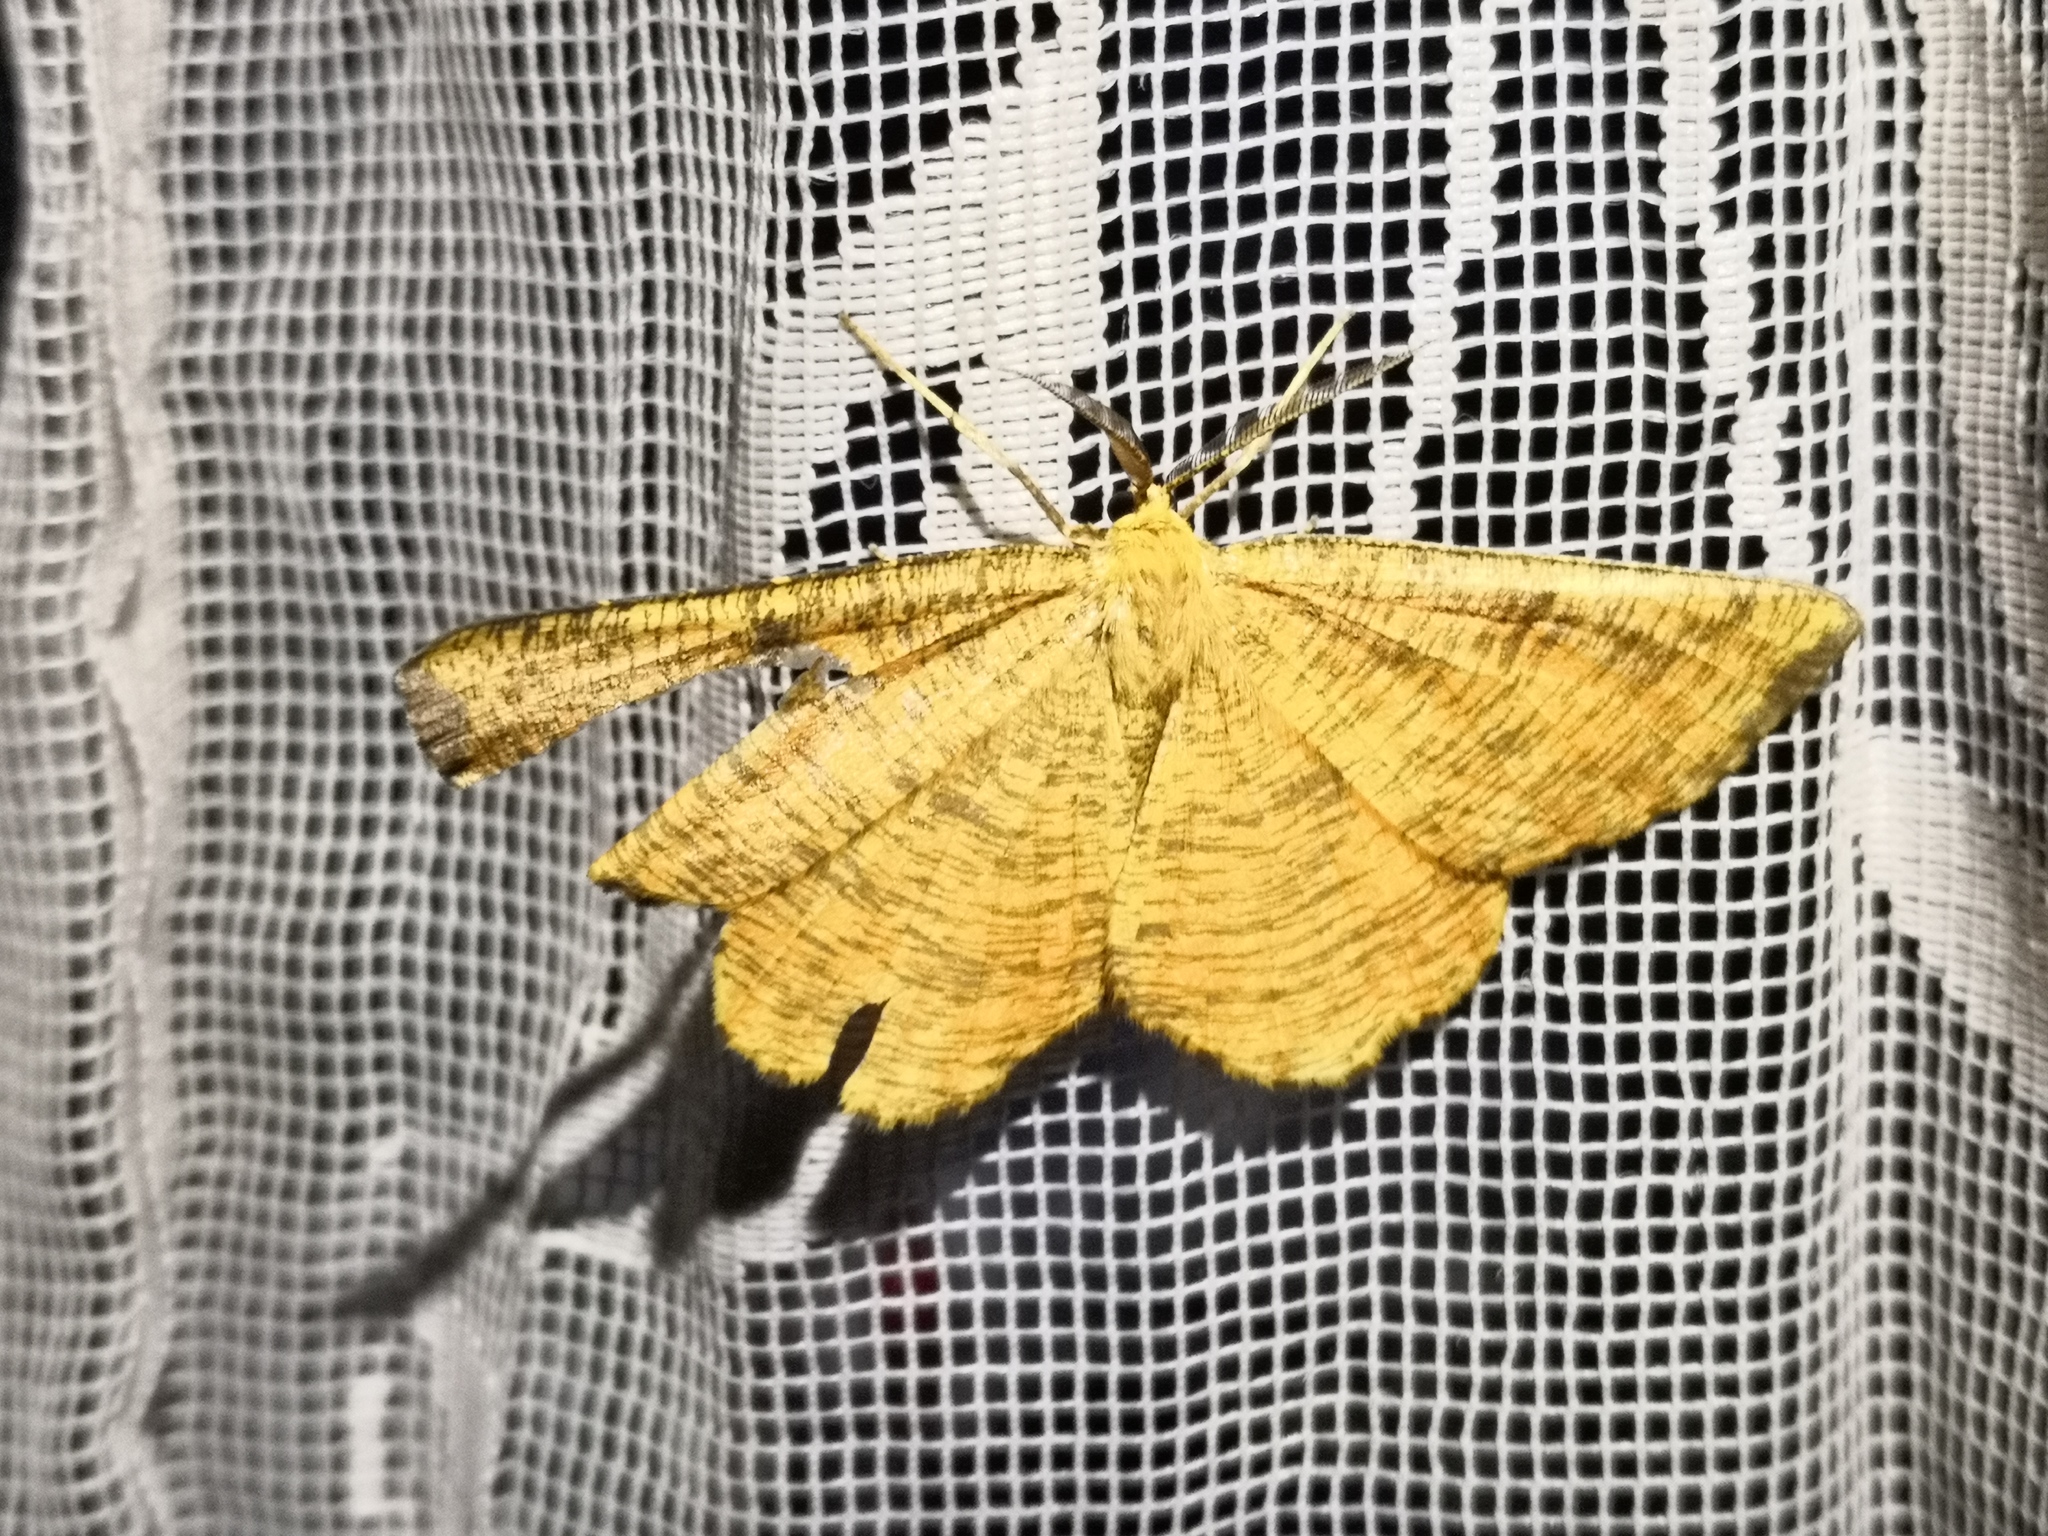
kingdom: Animalia
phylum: Arthropoda
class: Insecta
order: Lepidoptera
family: Geometridae
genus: Angerona
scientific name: Angerona prunaria
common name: Orange moth
